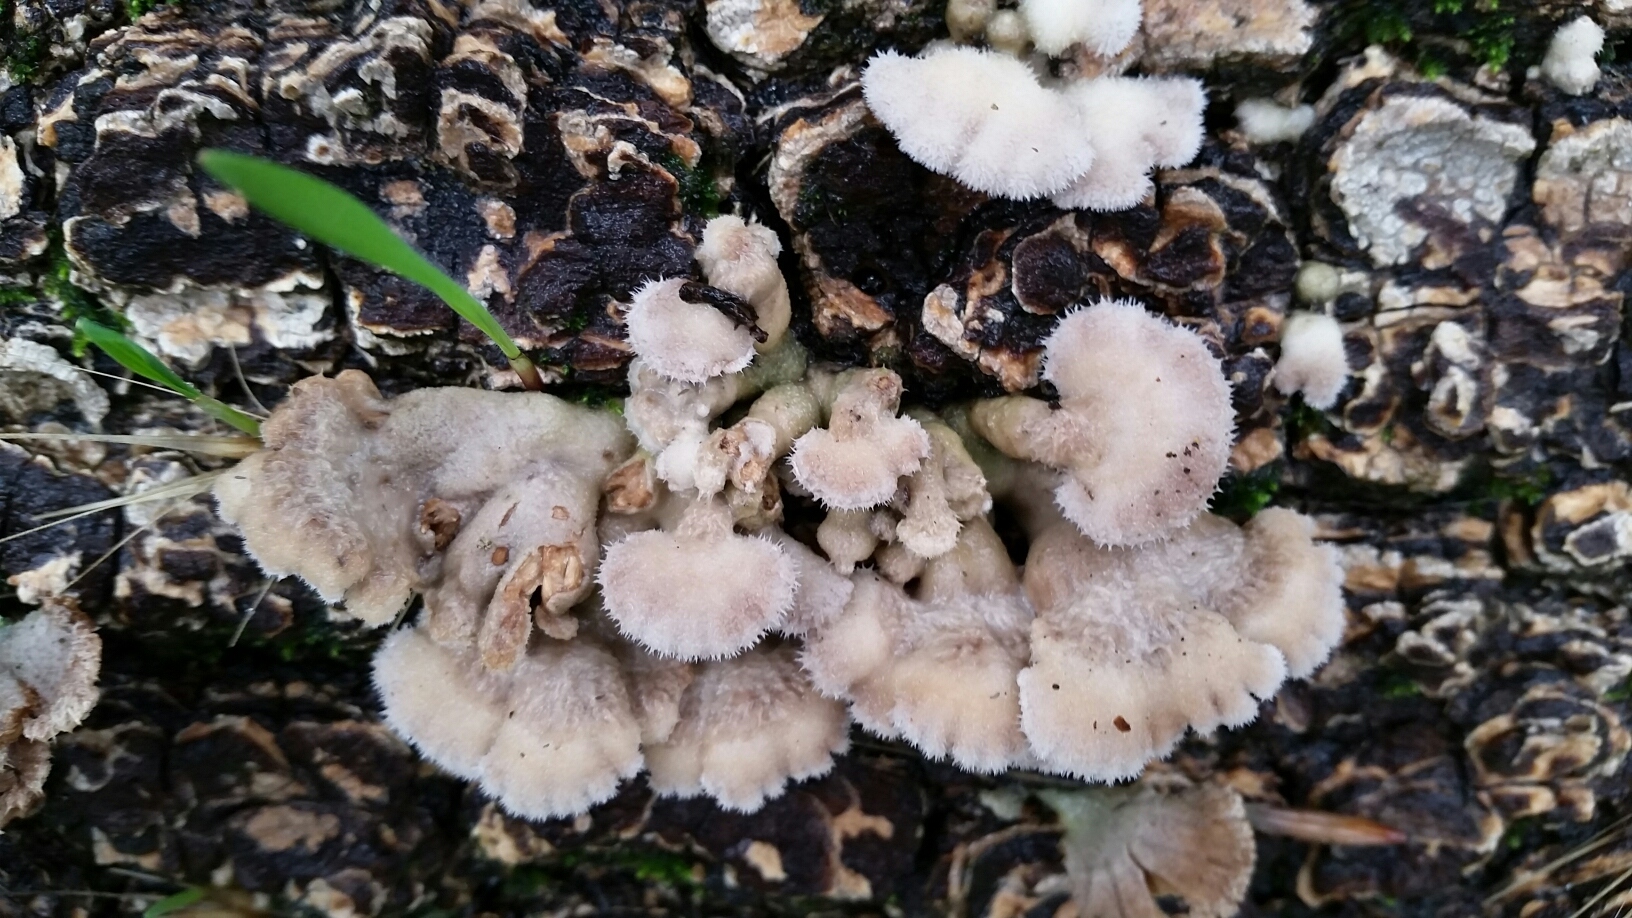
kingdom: Fungi
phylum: Basidiomycota
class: Agaricomycetes
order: Agaricales
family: Schizophyllaceae
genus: Schizophyllum
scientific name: Schizophyllum commune
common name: Common porecrust
